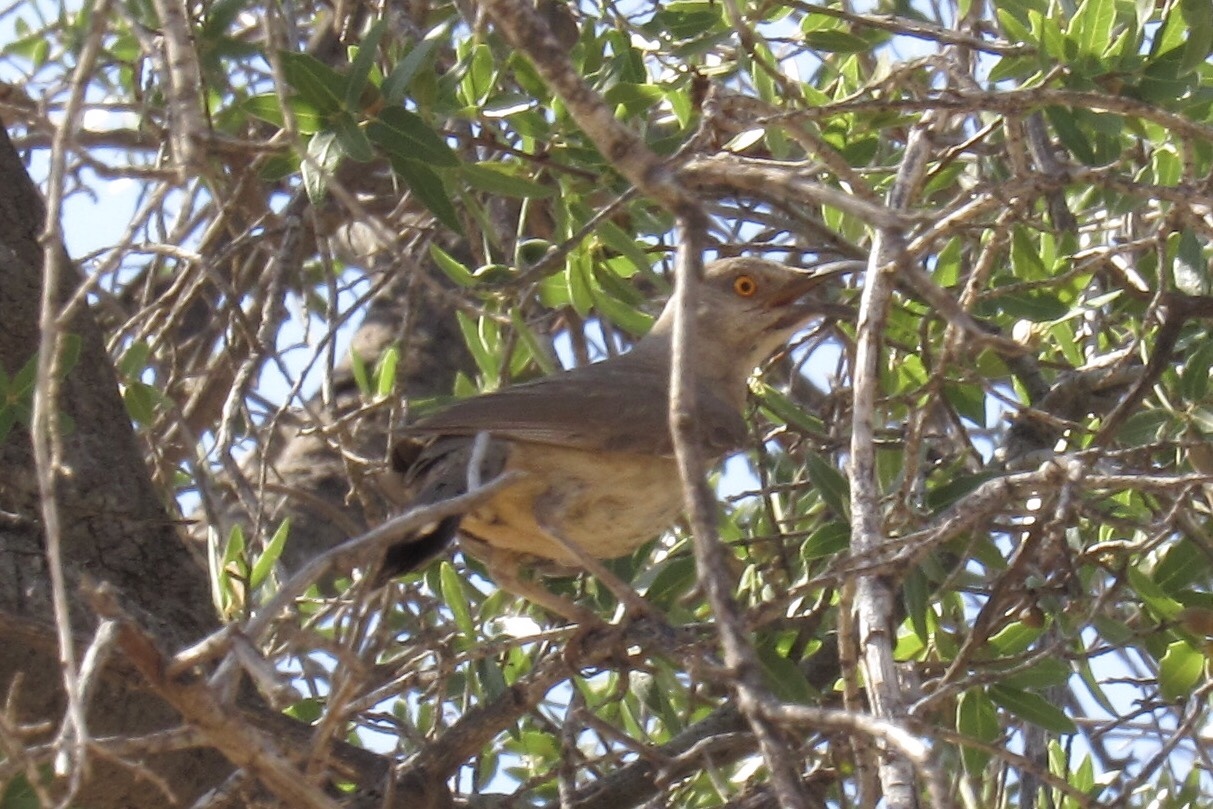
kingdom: Animalia
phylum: Chordata
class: Aves
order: Passeriformes
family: Mimidae
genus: Toxostoma
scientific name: Toxostoma curvirostre
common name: Curve-billed thrasher
